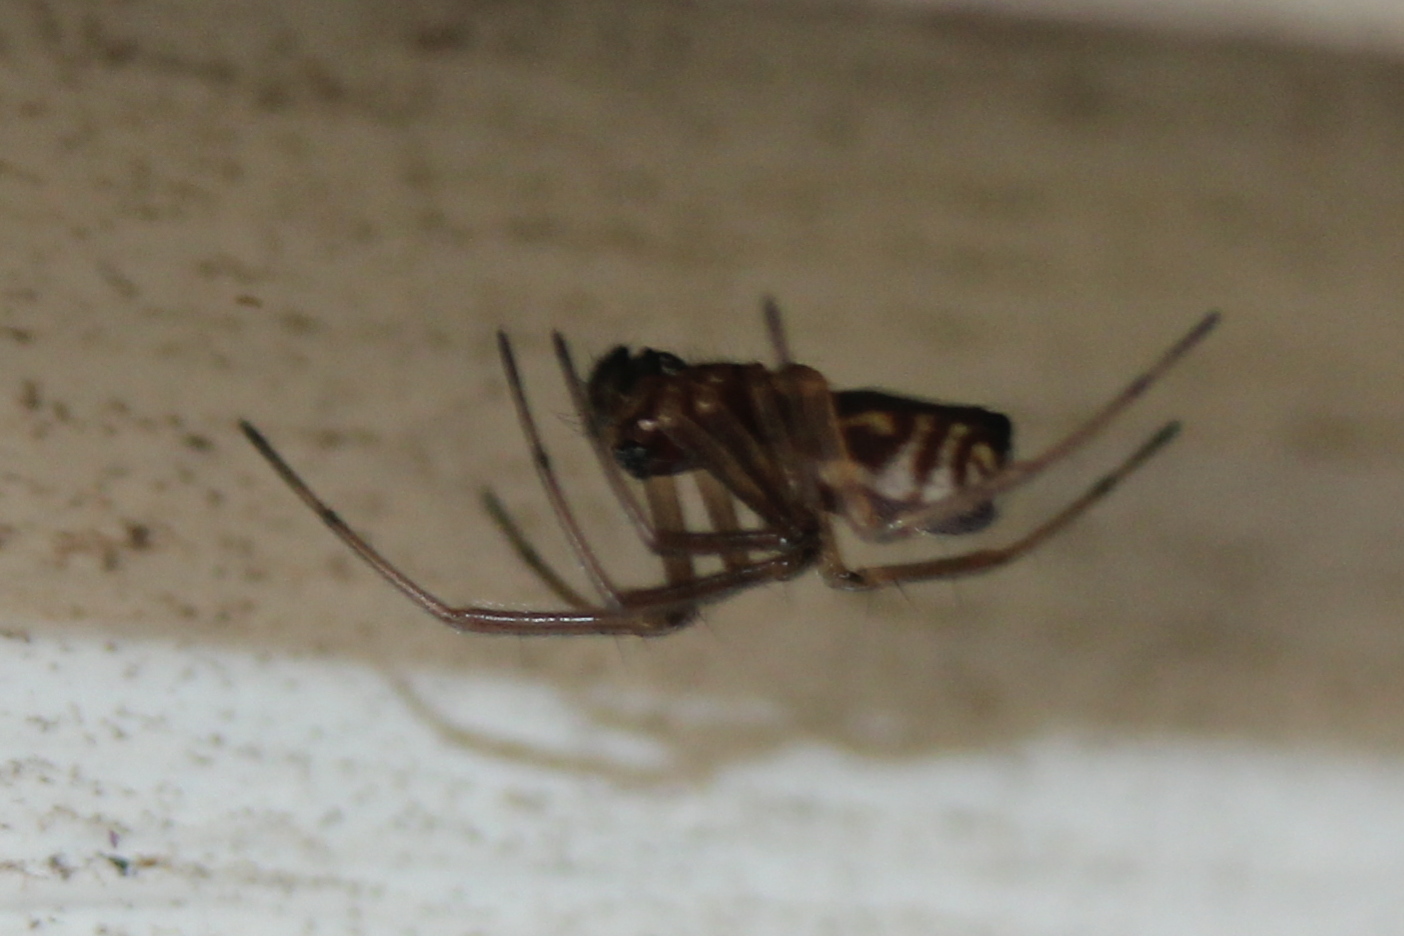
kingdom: Animalia
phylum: Arthropoda
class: Arachnida
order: Araneae
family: Linyphiidae
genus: Frontinella
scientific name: Frontinella pyramitela
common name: Bowl-and-doily spider
